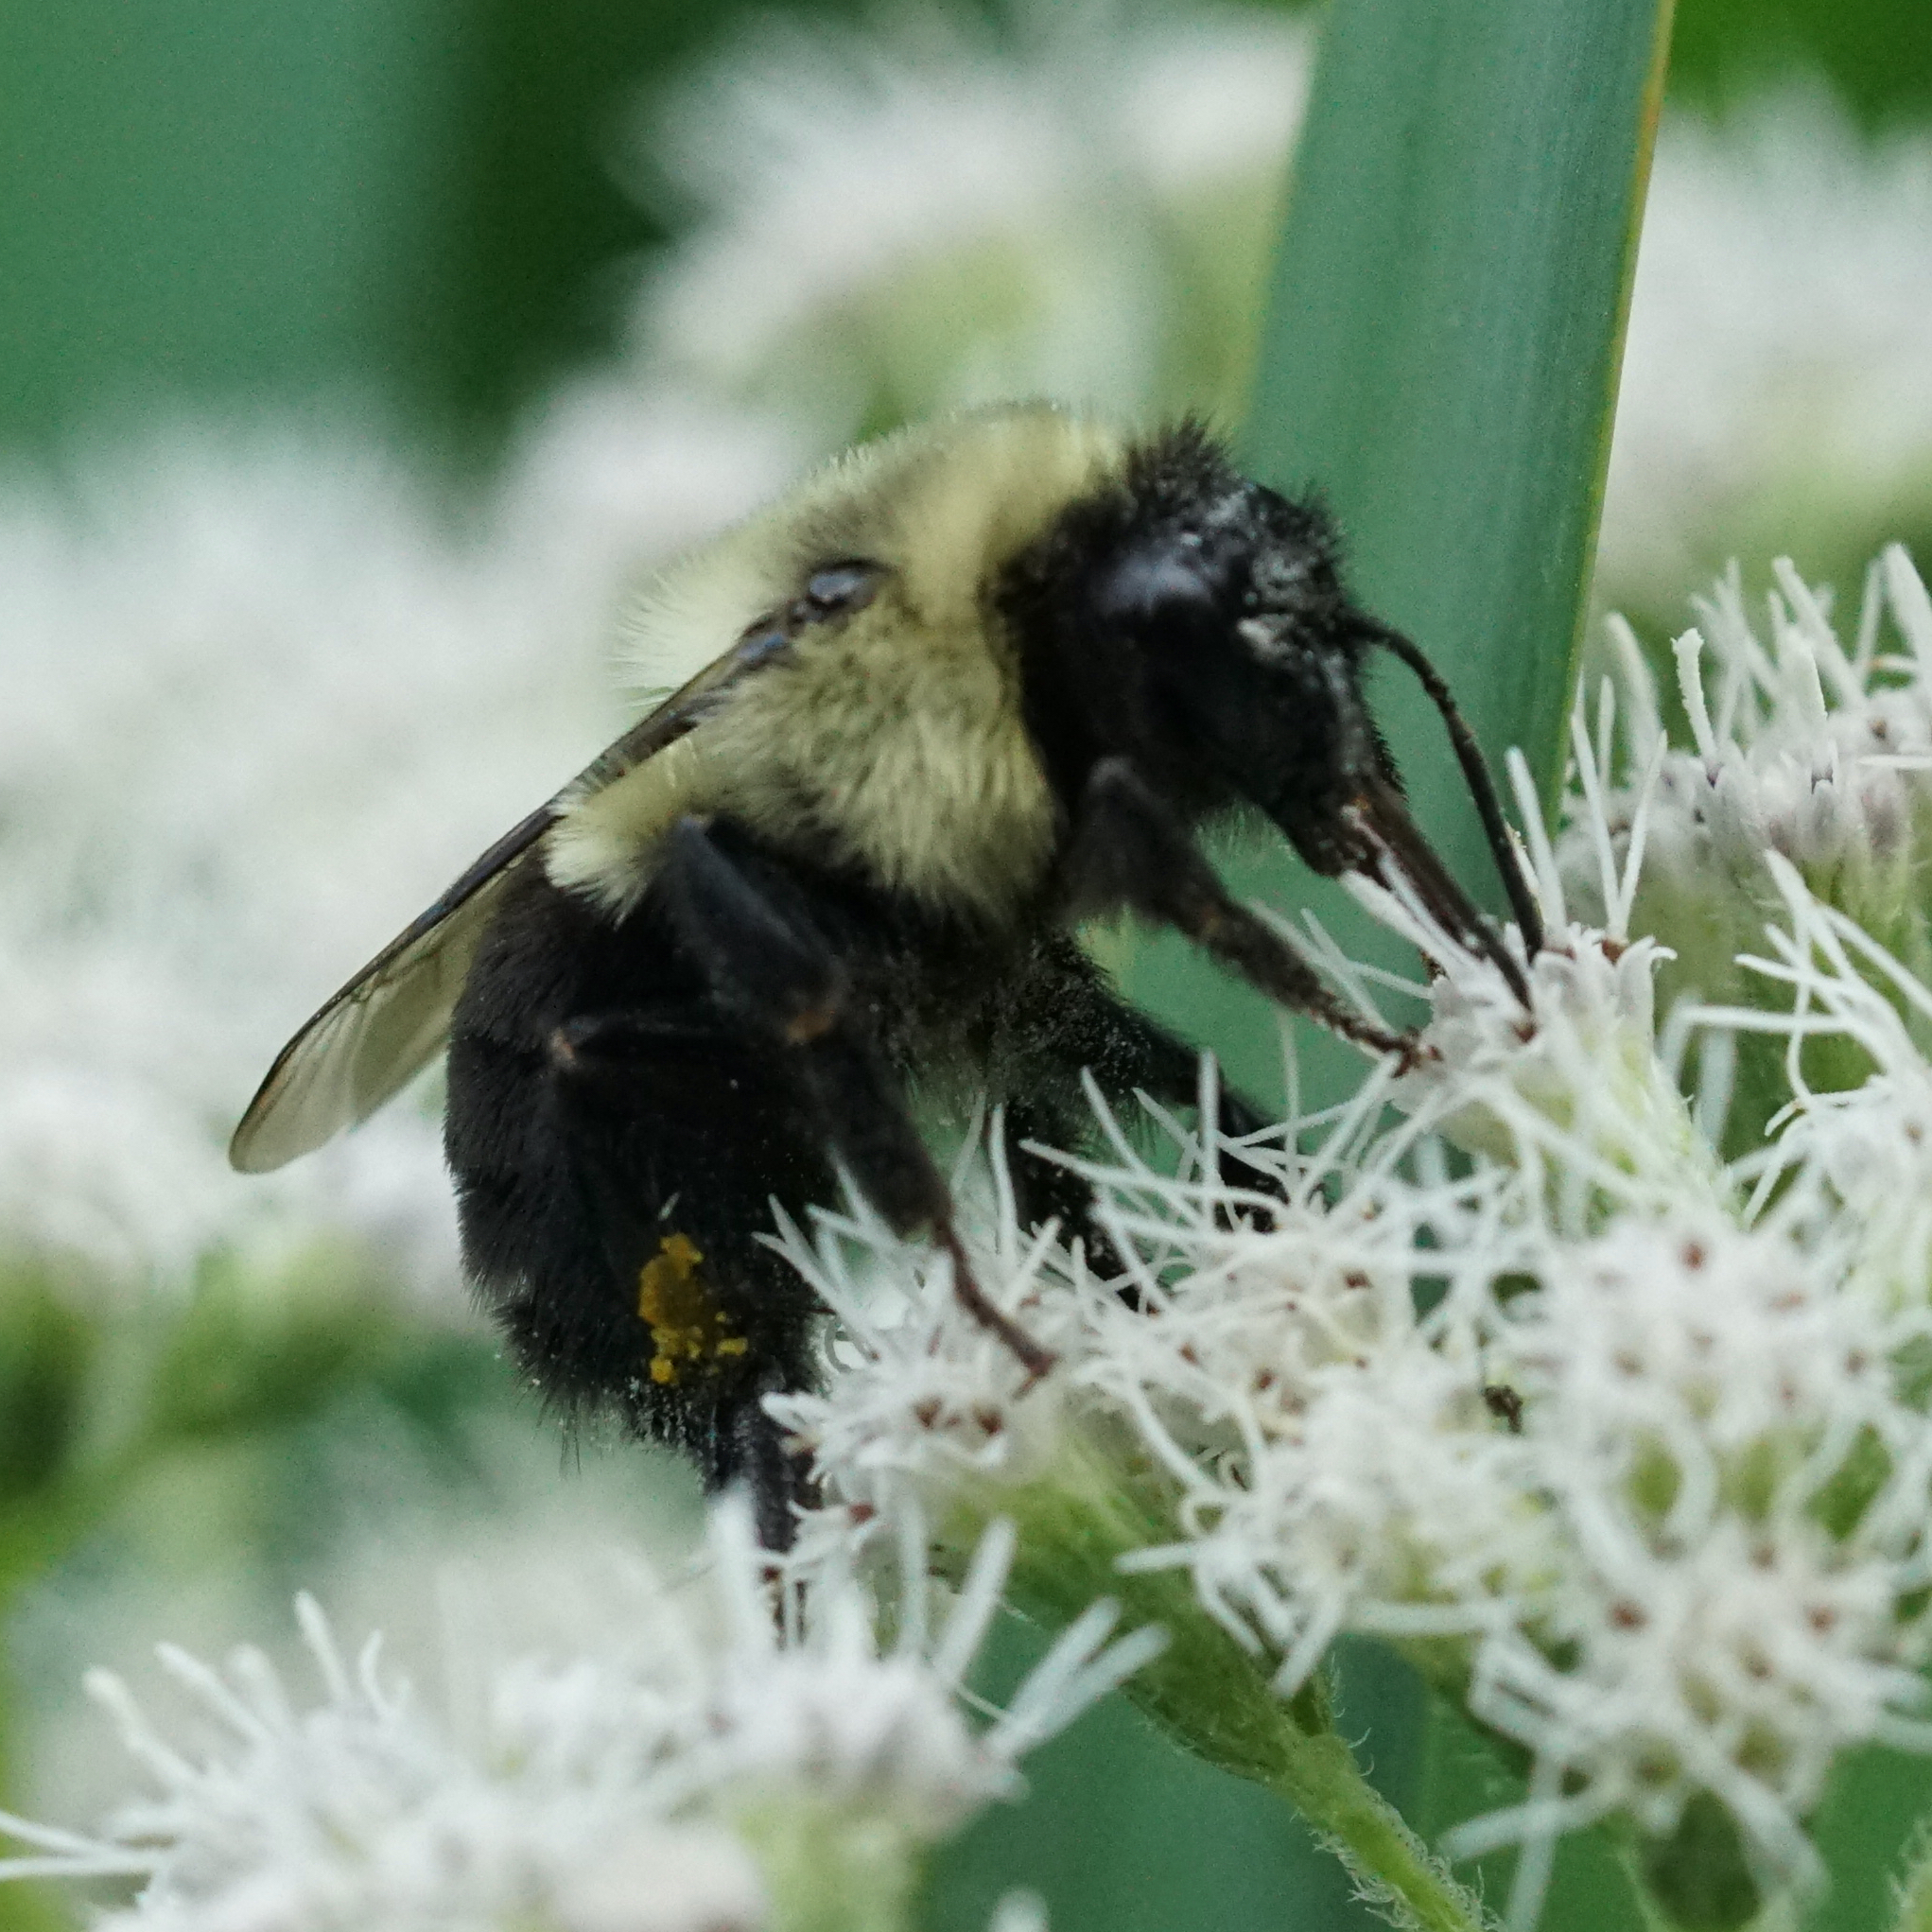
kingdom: Animalia
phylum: Arthropoda
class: Insecta
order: Hymenoptera
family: Apidae
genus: Bombus
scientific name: Bombus impatiens
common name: Common eastern bumble bee
